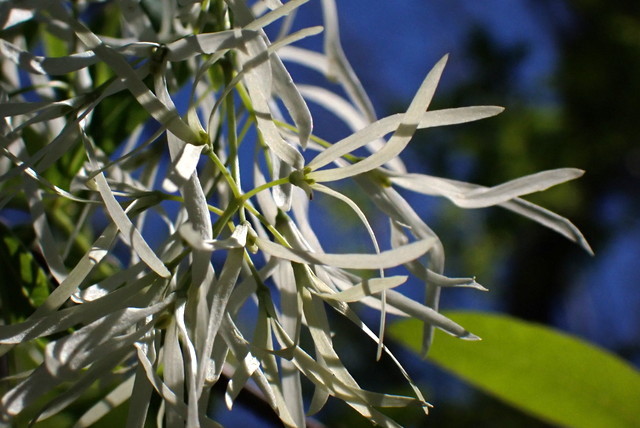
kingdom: Plantae
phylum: Tracheophyta
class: Magnoliopsida
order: Lamiales
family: Oleaceae
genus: Chionanthus
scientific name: Chionanthus virginicus
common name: American fringetree
